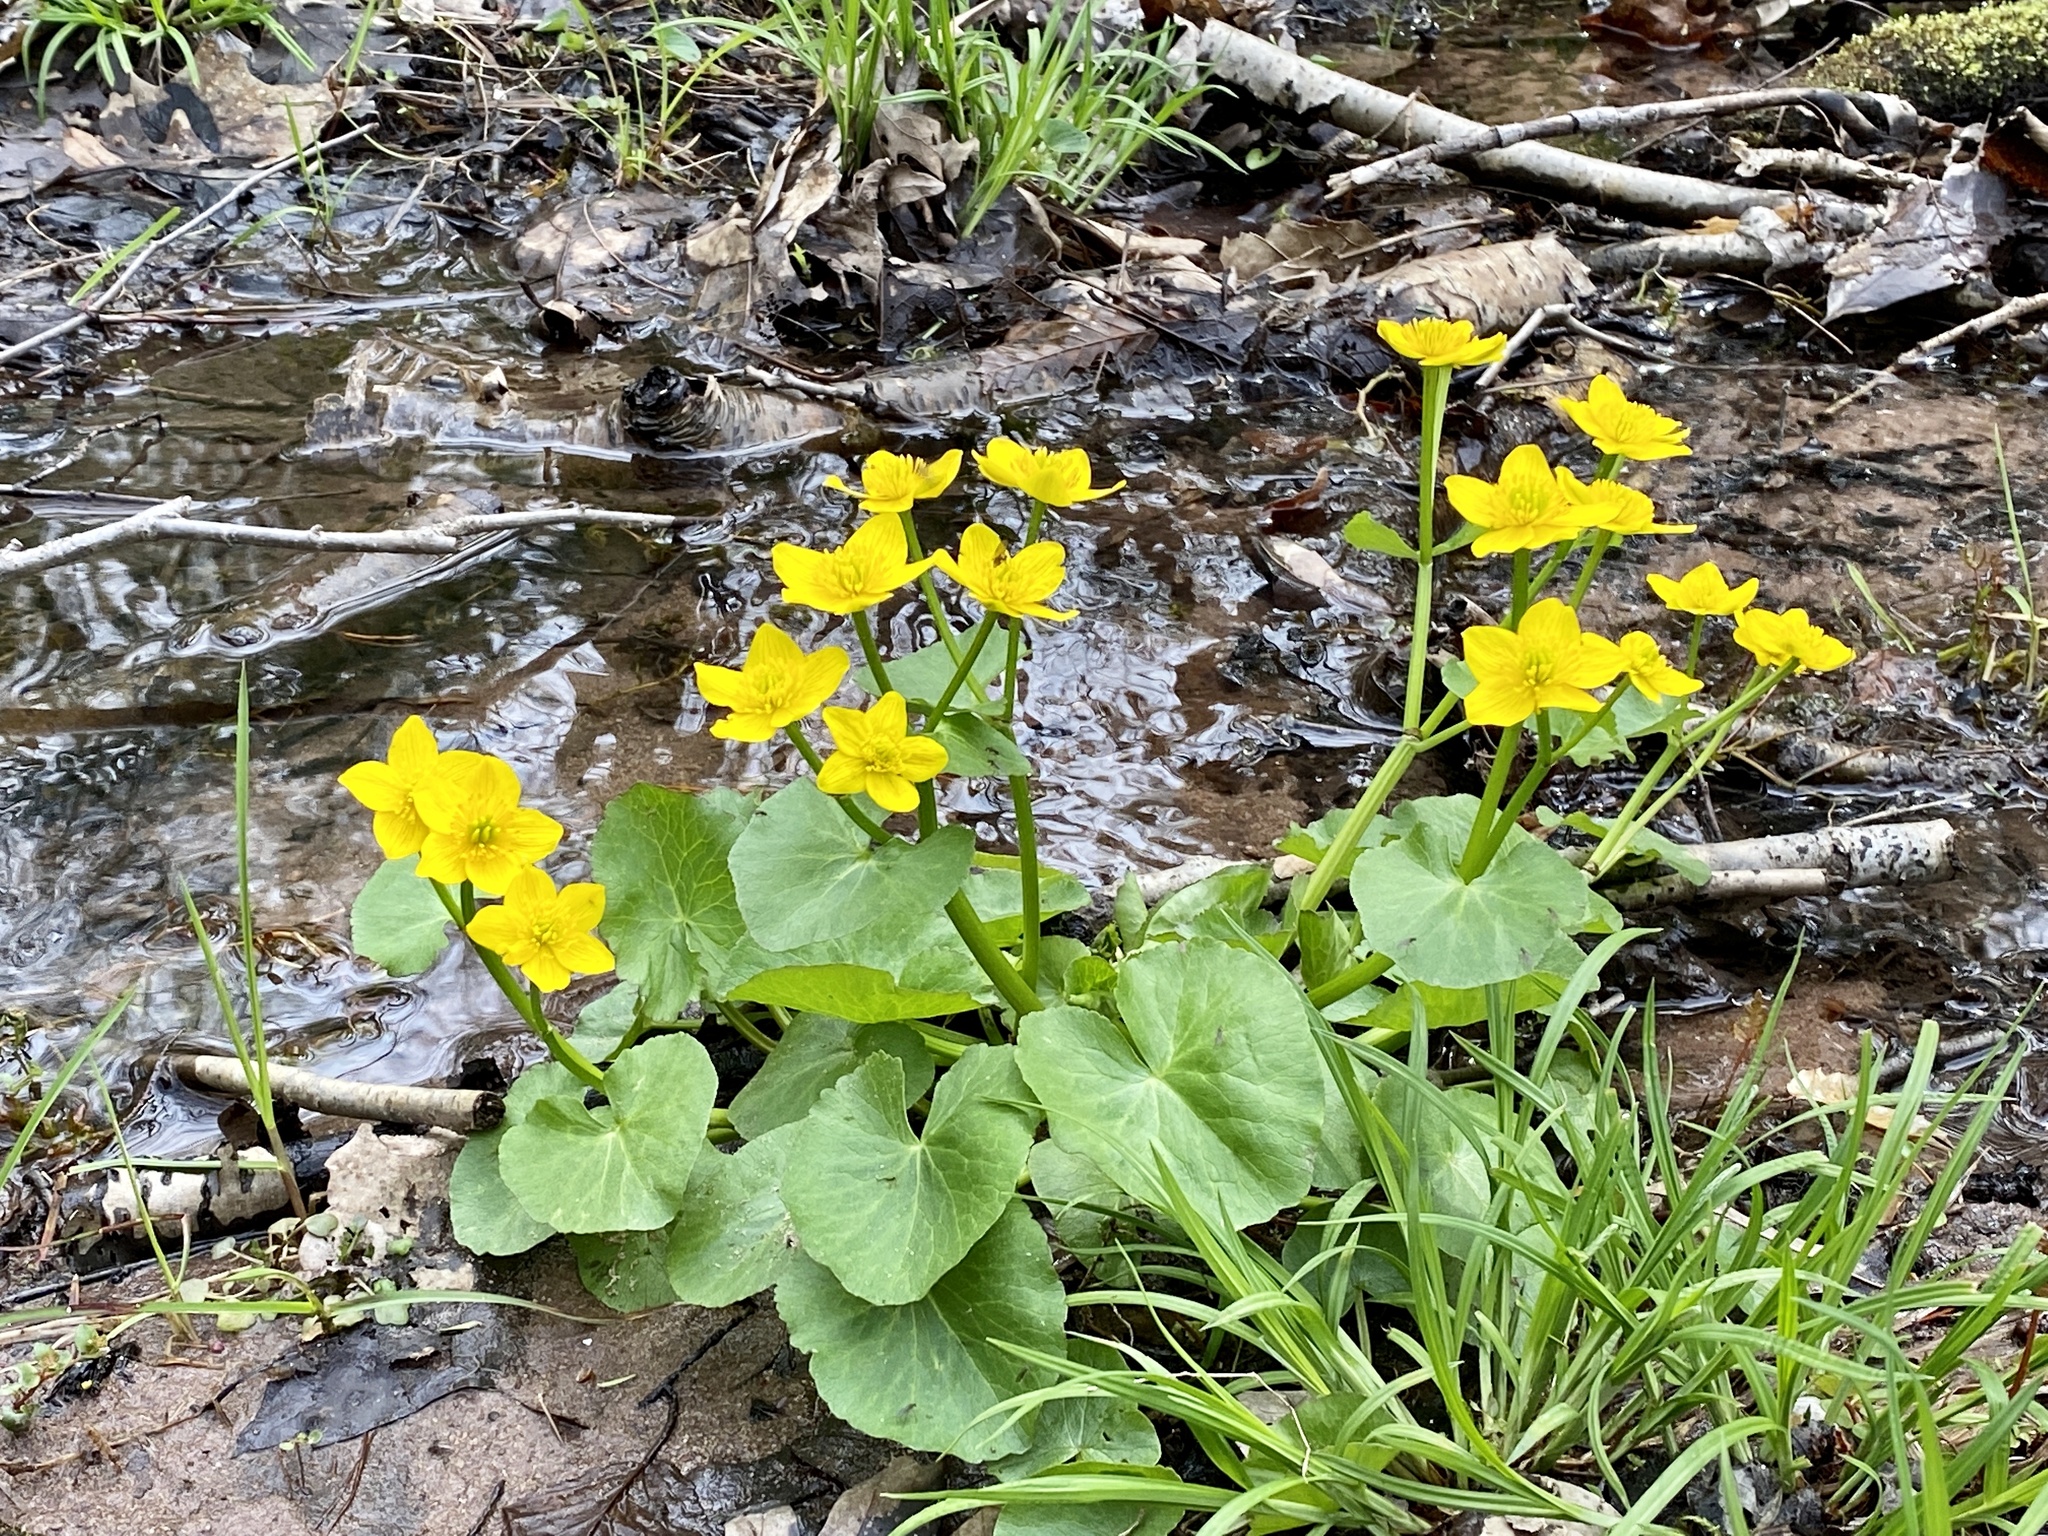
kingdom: Plantae
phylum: Tracheophyta
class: Magnoliopsida
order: Ranunculales
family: Ranunculaceae
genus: Caltha
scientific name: Caltha palustris
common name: Marsh marigold
